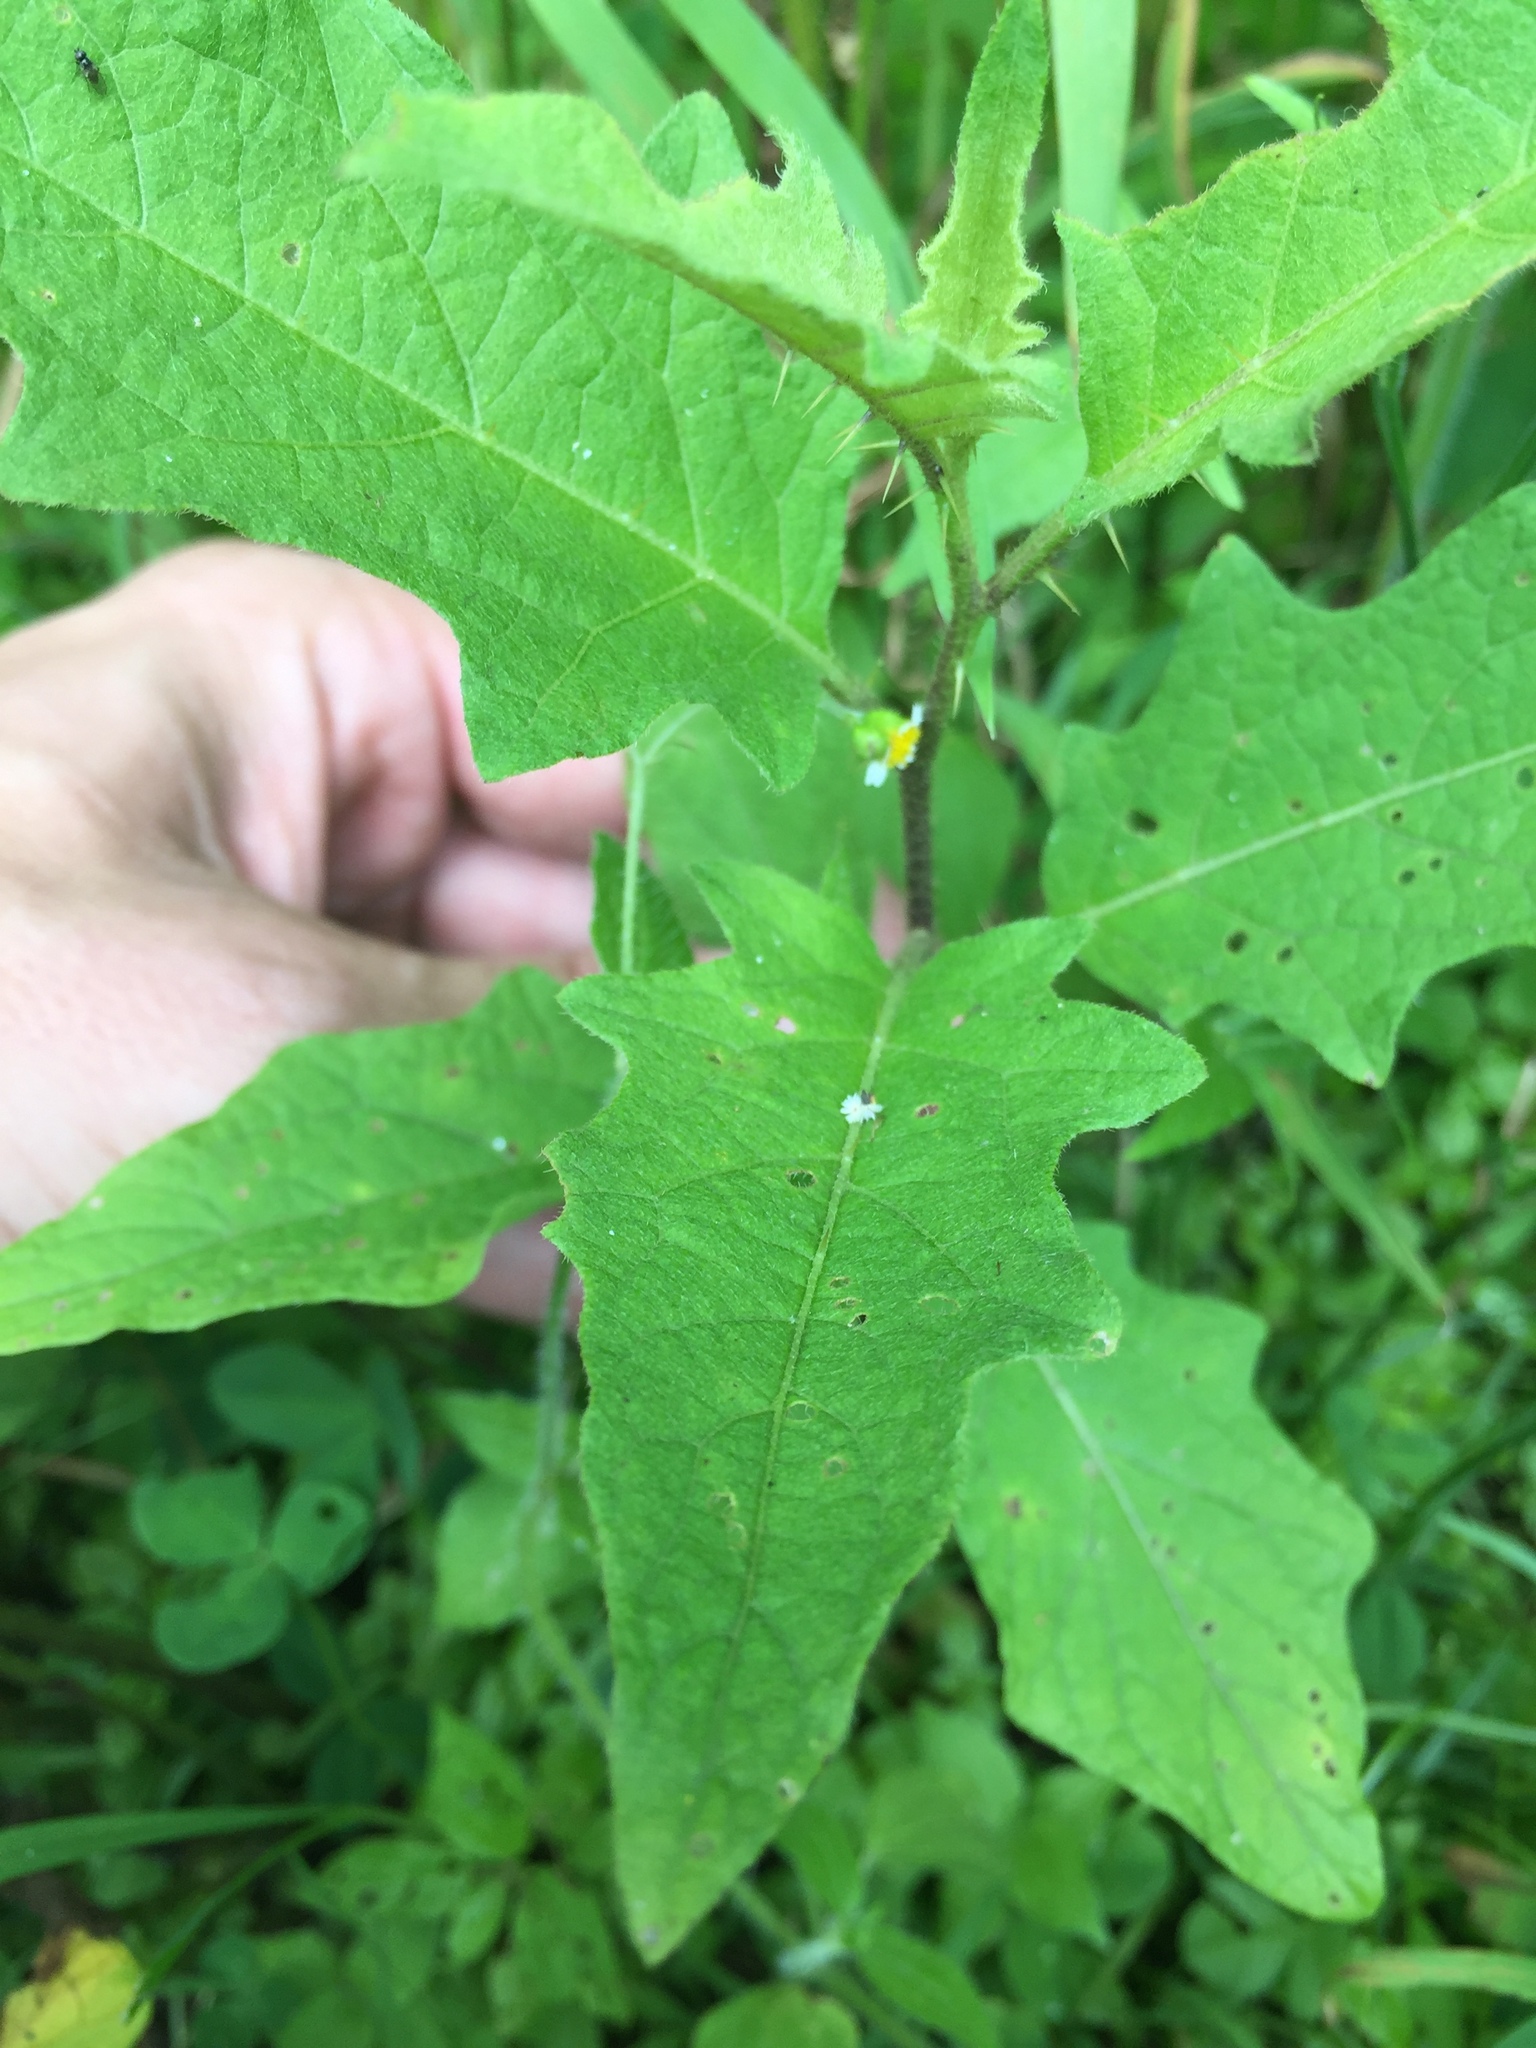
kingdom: Plantae
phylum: Tracheophyta
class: Magnoliopsida
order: Solanales
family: Solanaceae
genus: Solanum
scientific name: Solanum carolinense
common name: Horse-nettle
